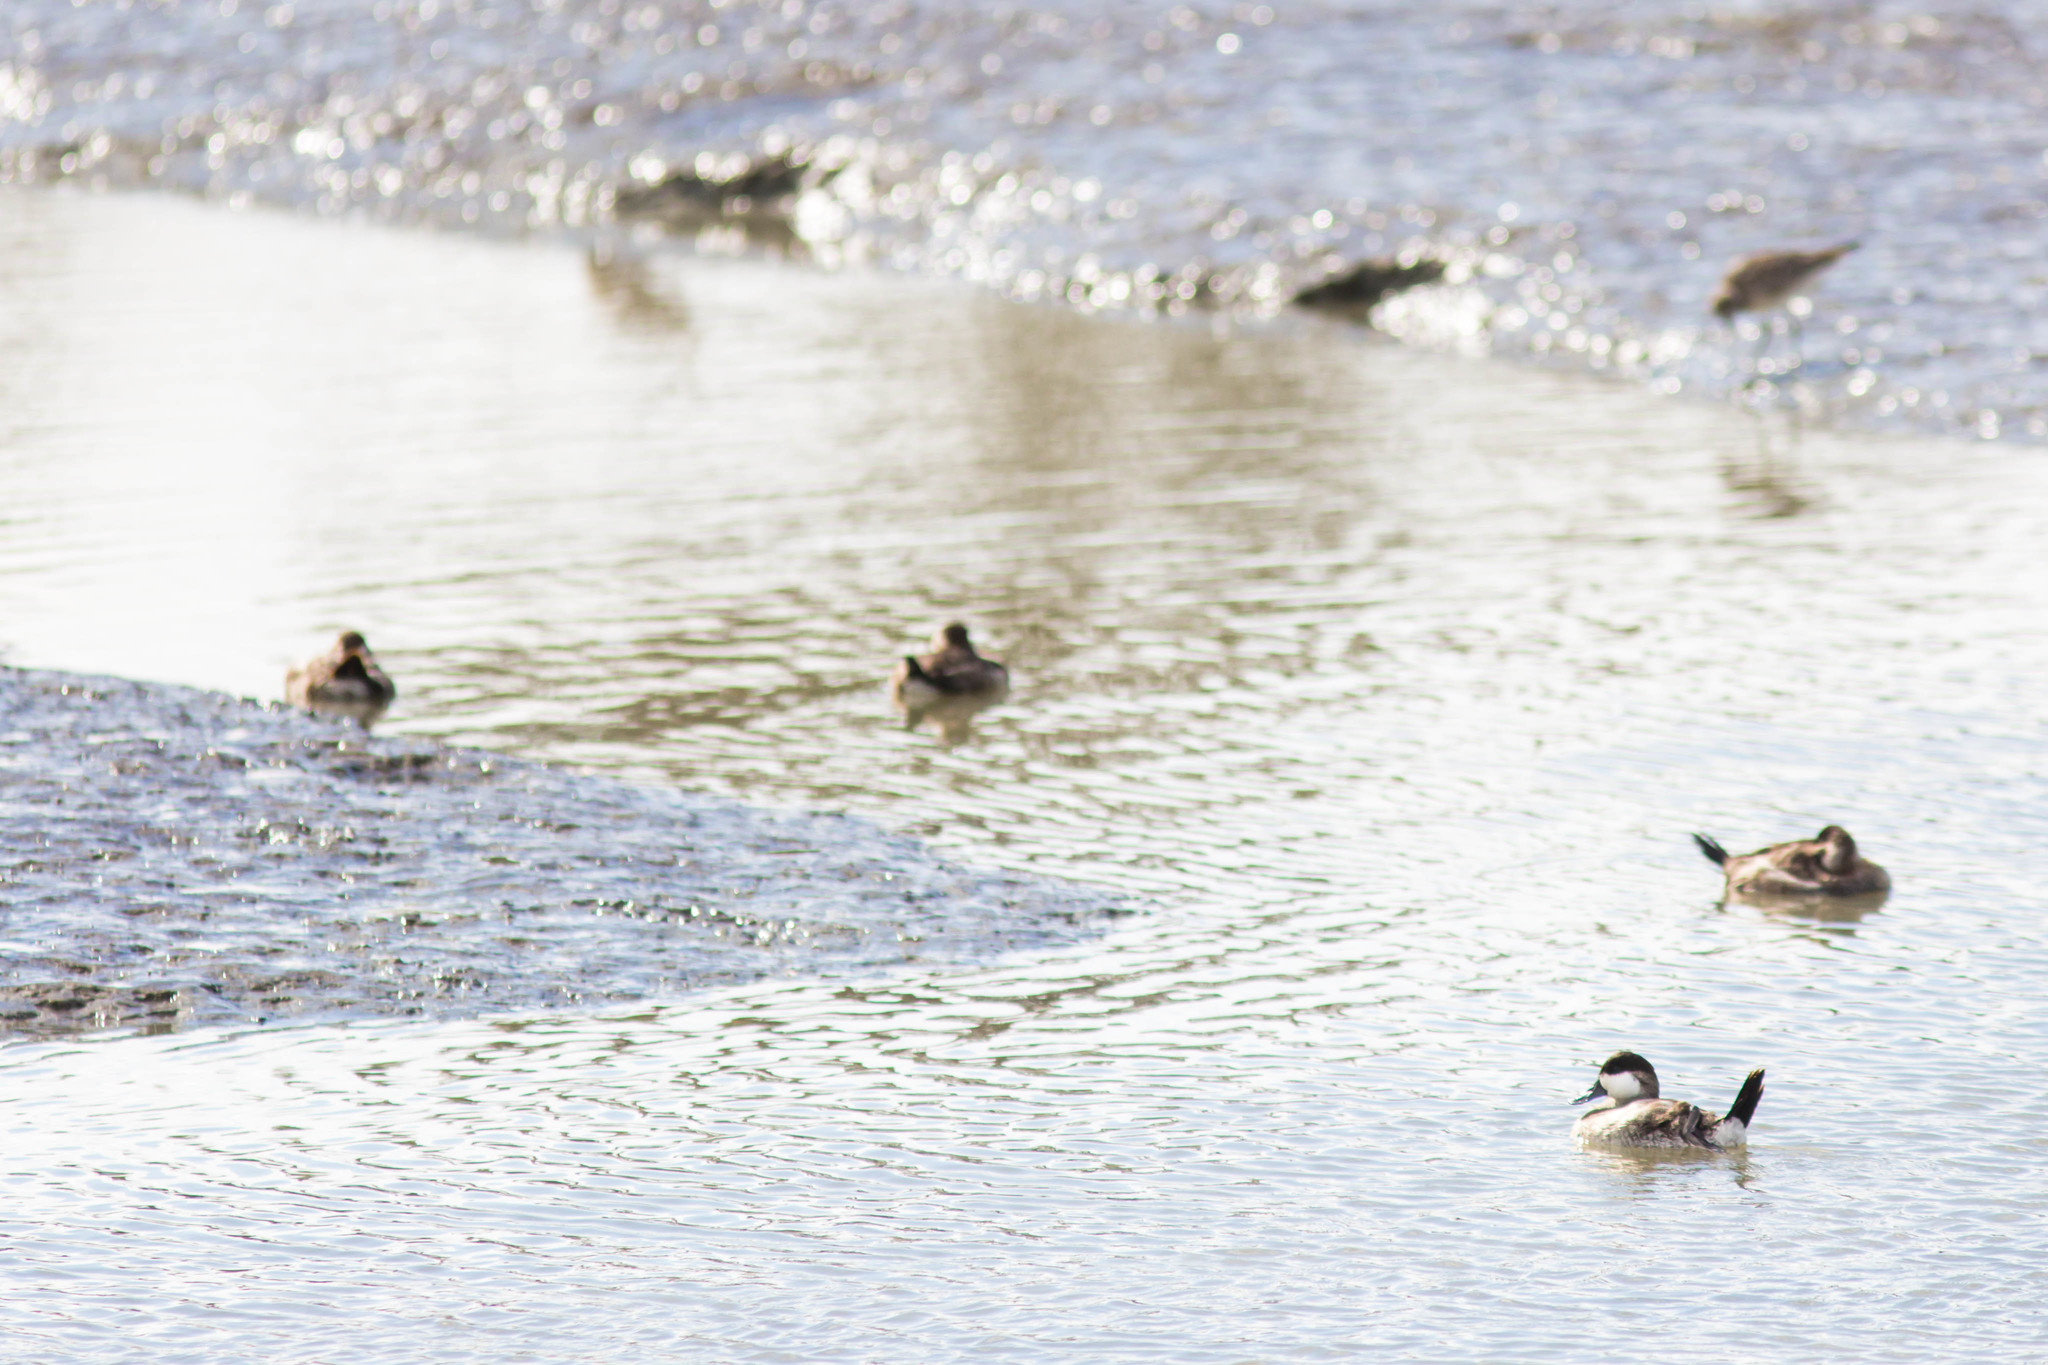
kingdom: Animalia
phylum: Chordata
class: Aves
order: Anseriformes
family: Anatidae
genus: Oxyura
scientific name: Oxyura jamaicensis
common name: Ruddy duck
